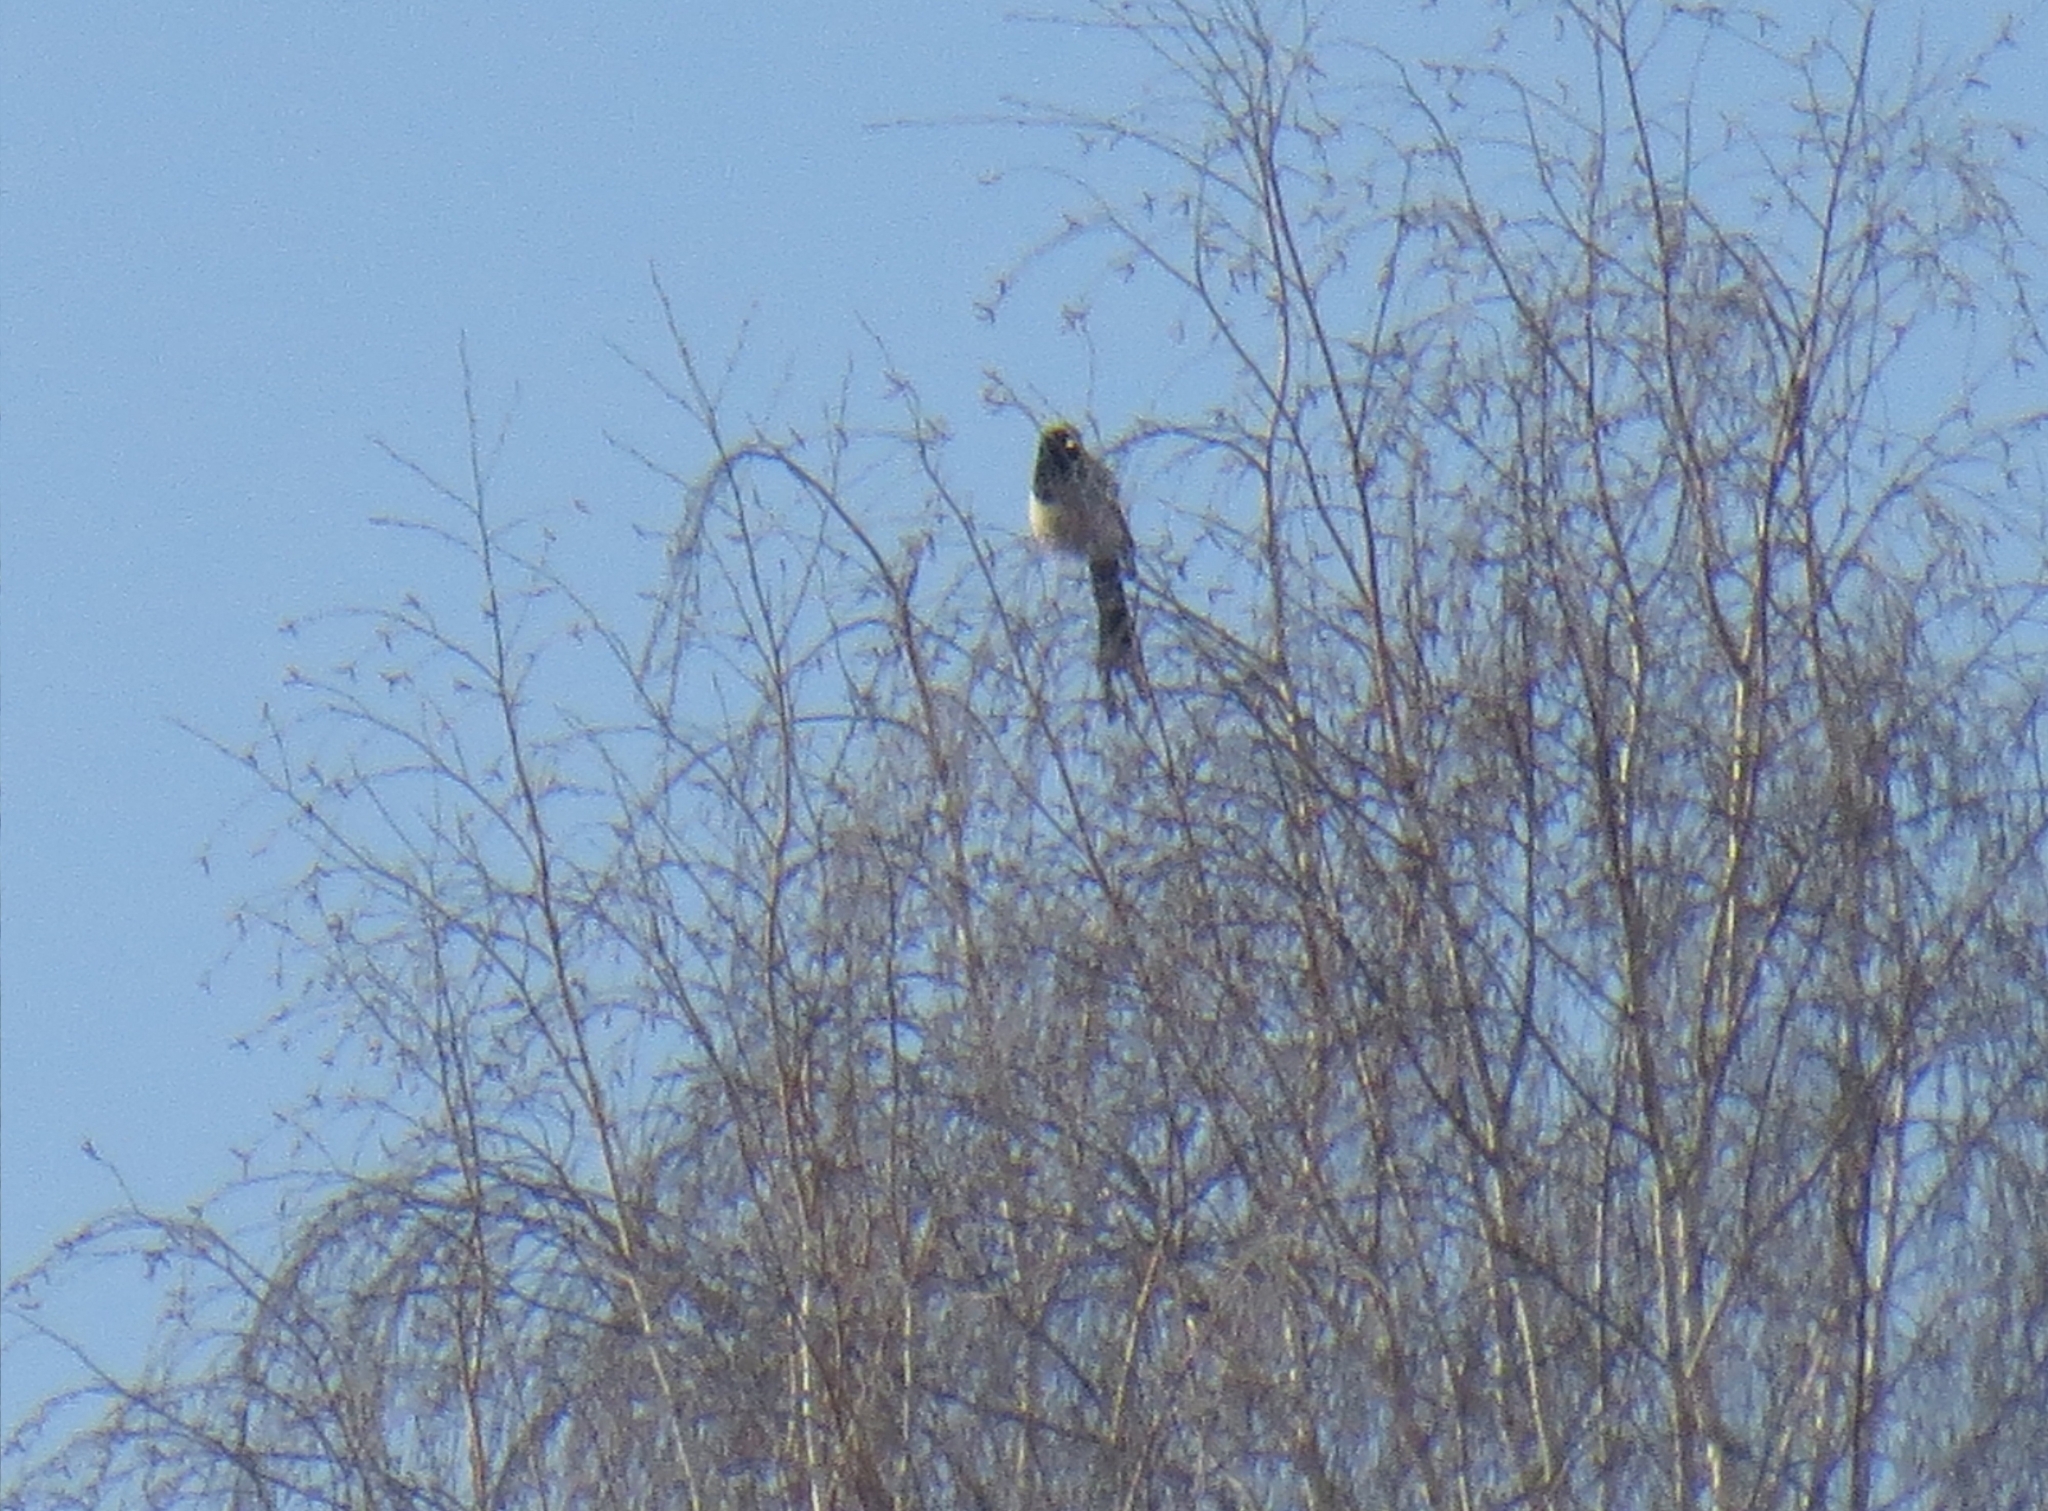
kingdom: Animalia
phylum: Chordata
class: Aves
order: Passeriformes
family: Corvidae
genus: Pica
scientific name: Pica pica
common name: Eurasian magpie
